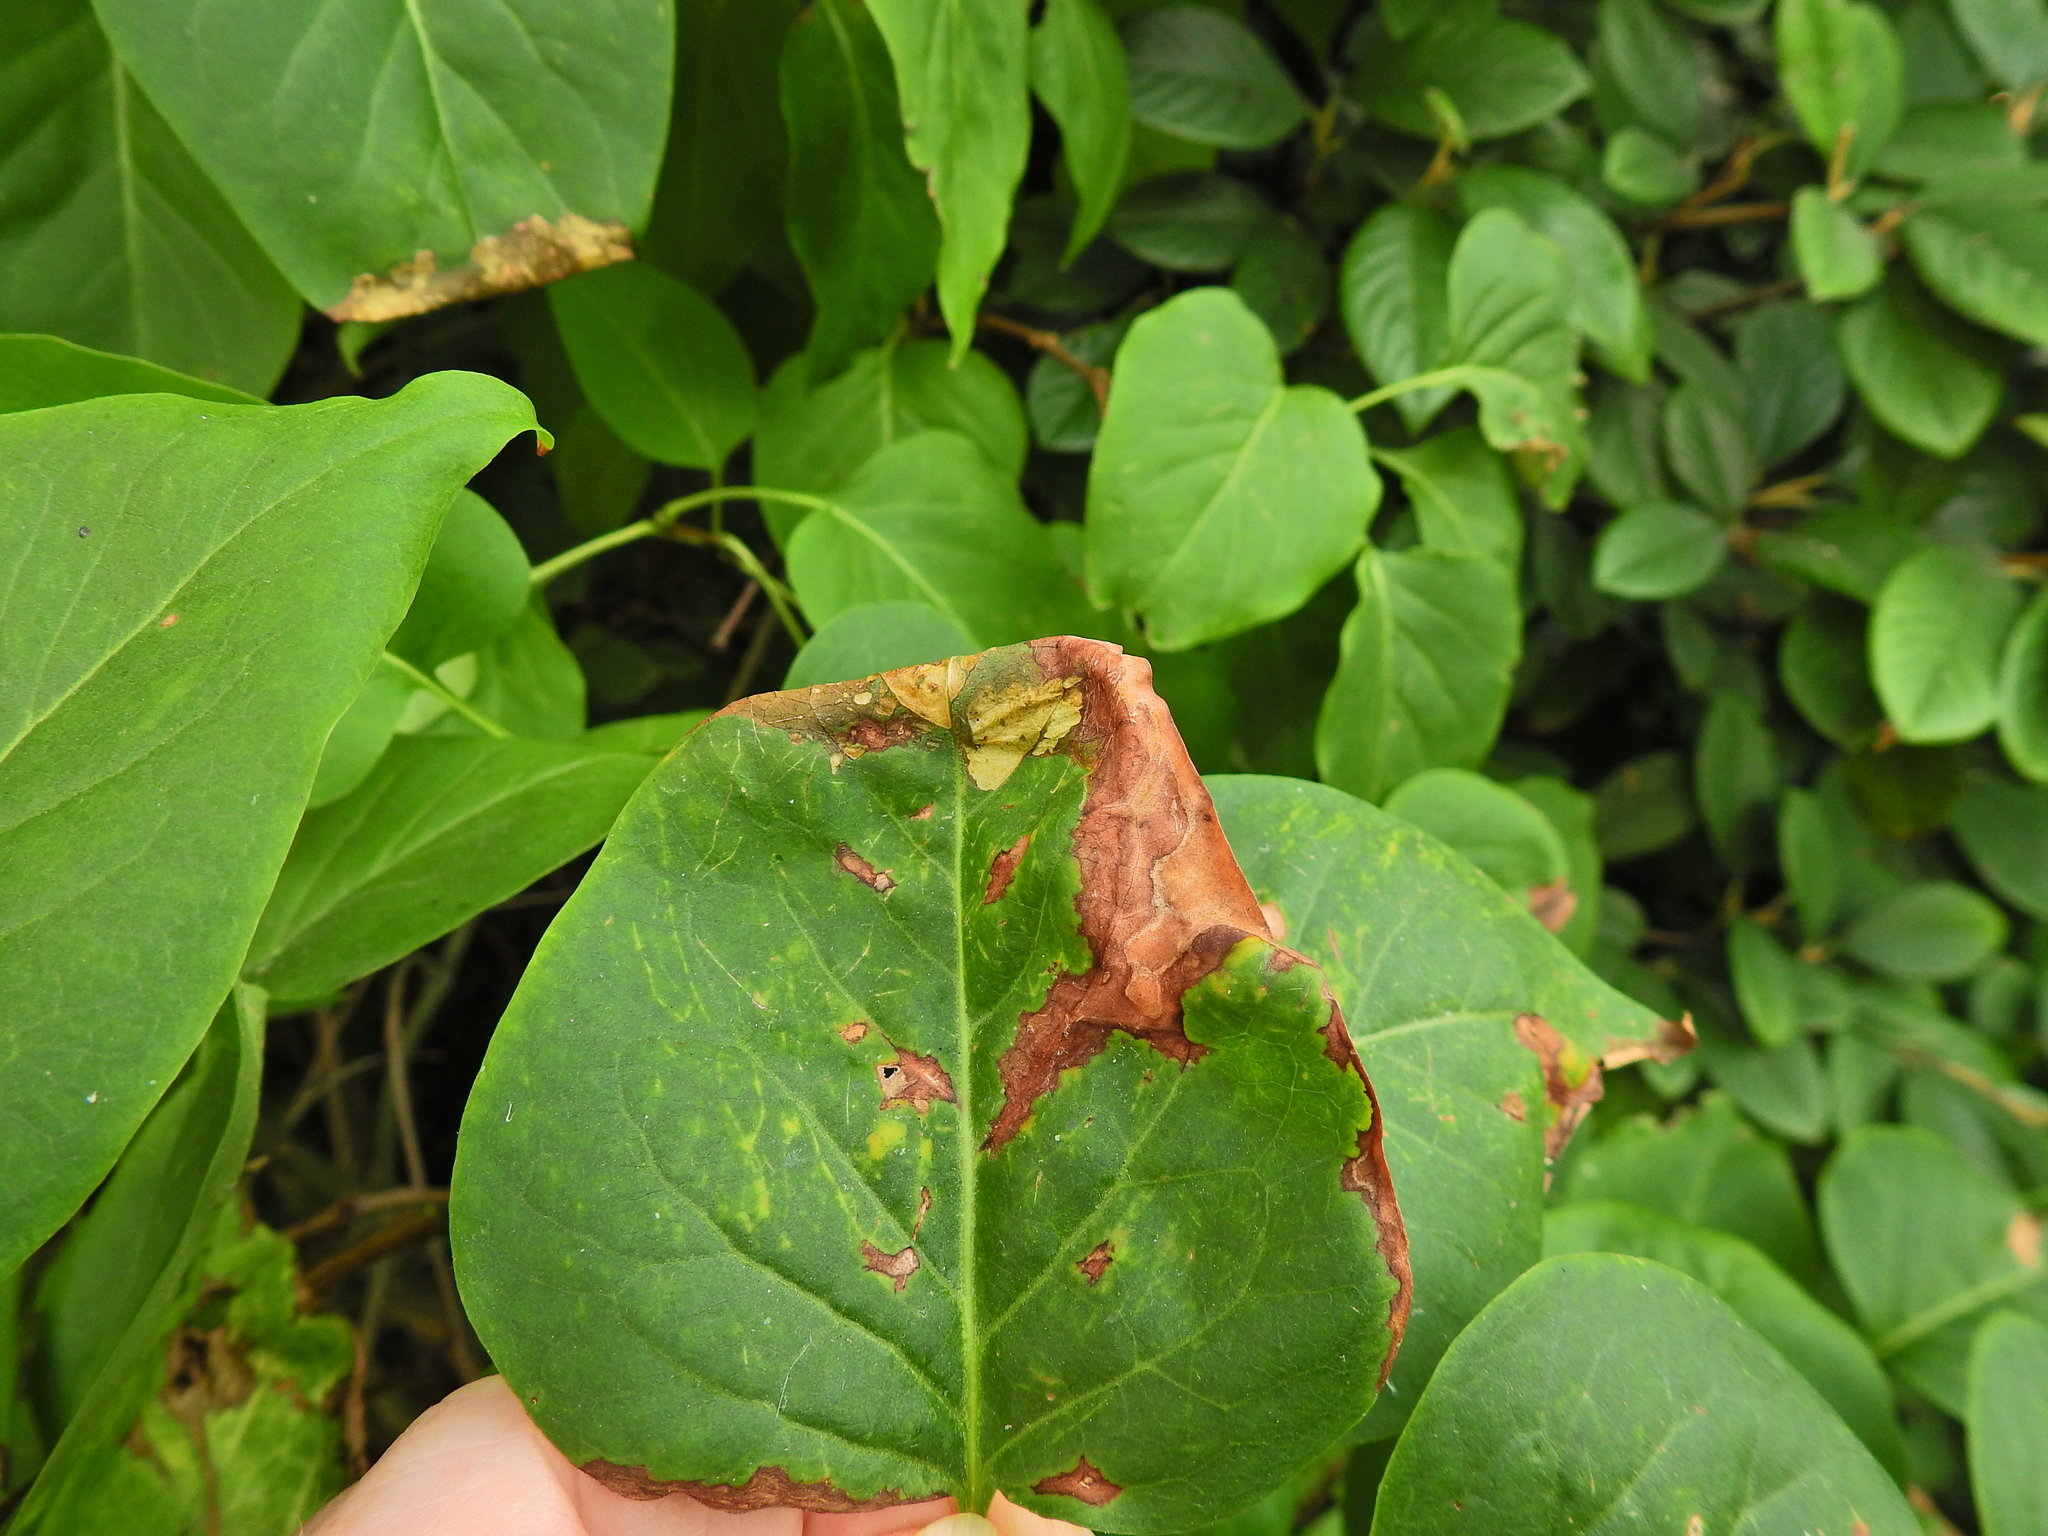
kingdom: Animalia
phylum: Arthropoda
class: Insecta
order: Lepidoptera
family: Gracillariidae
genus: Gracillaria
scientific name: Gracillaria syringella
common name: Common slender
